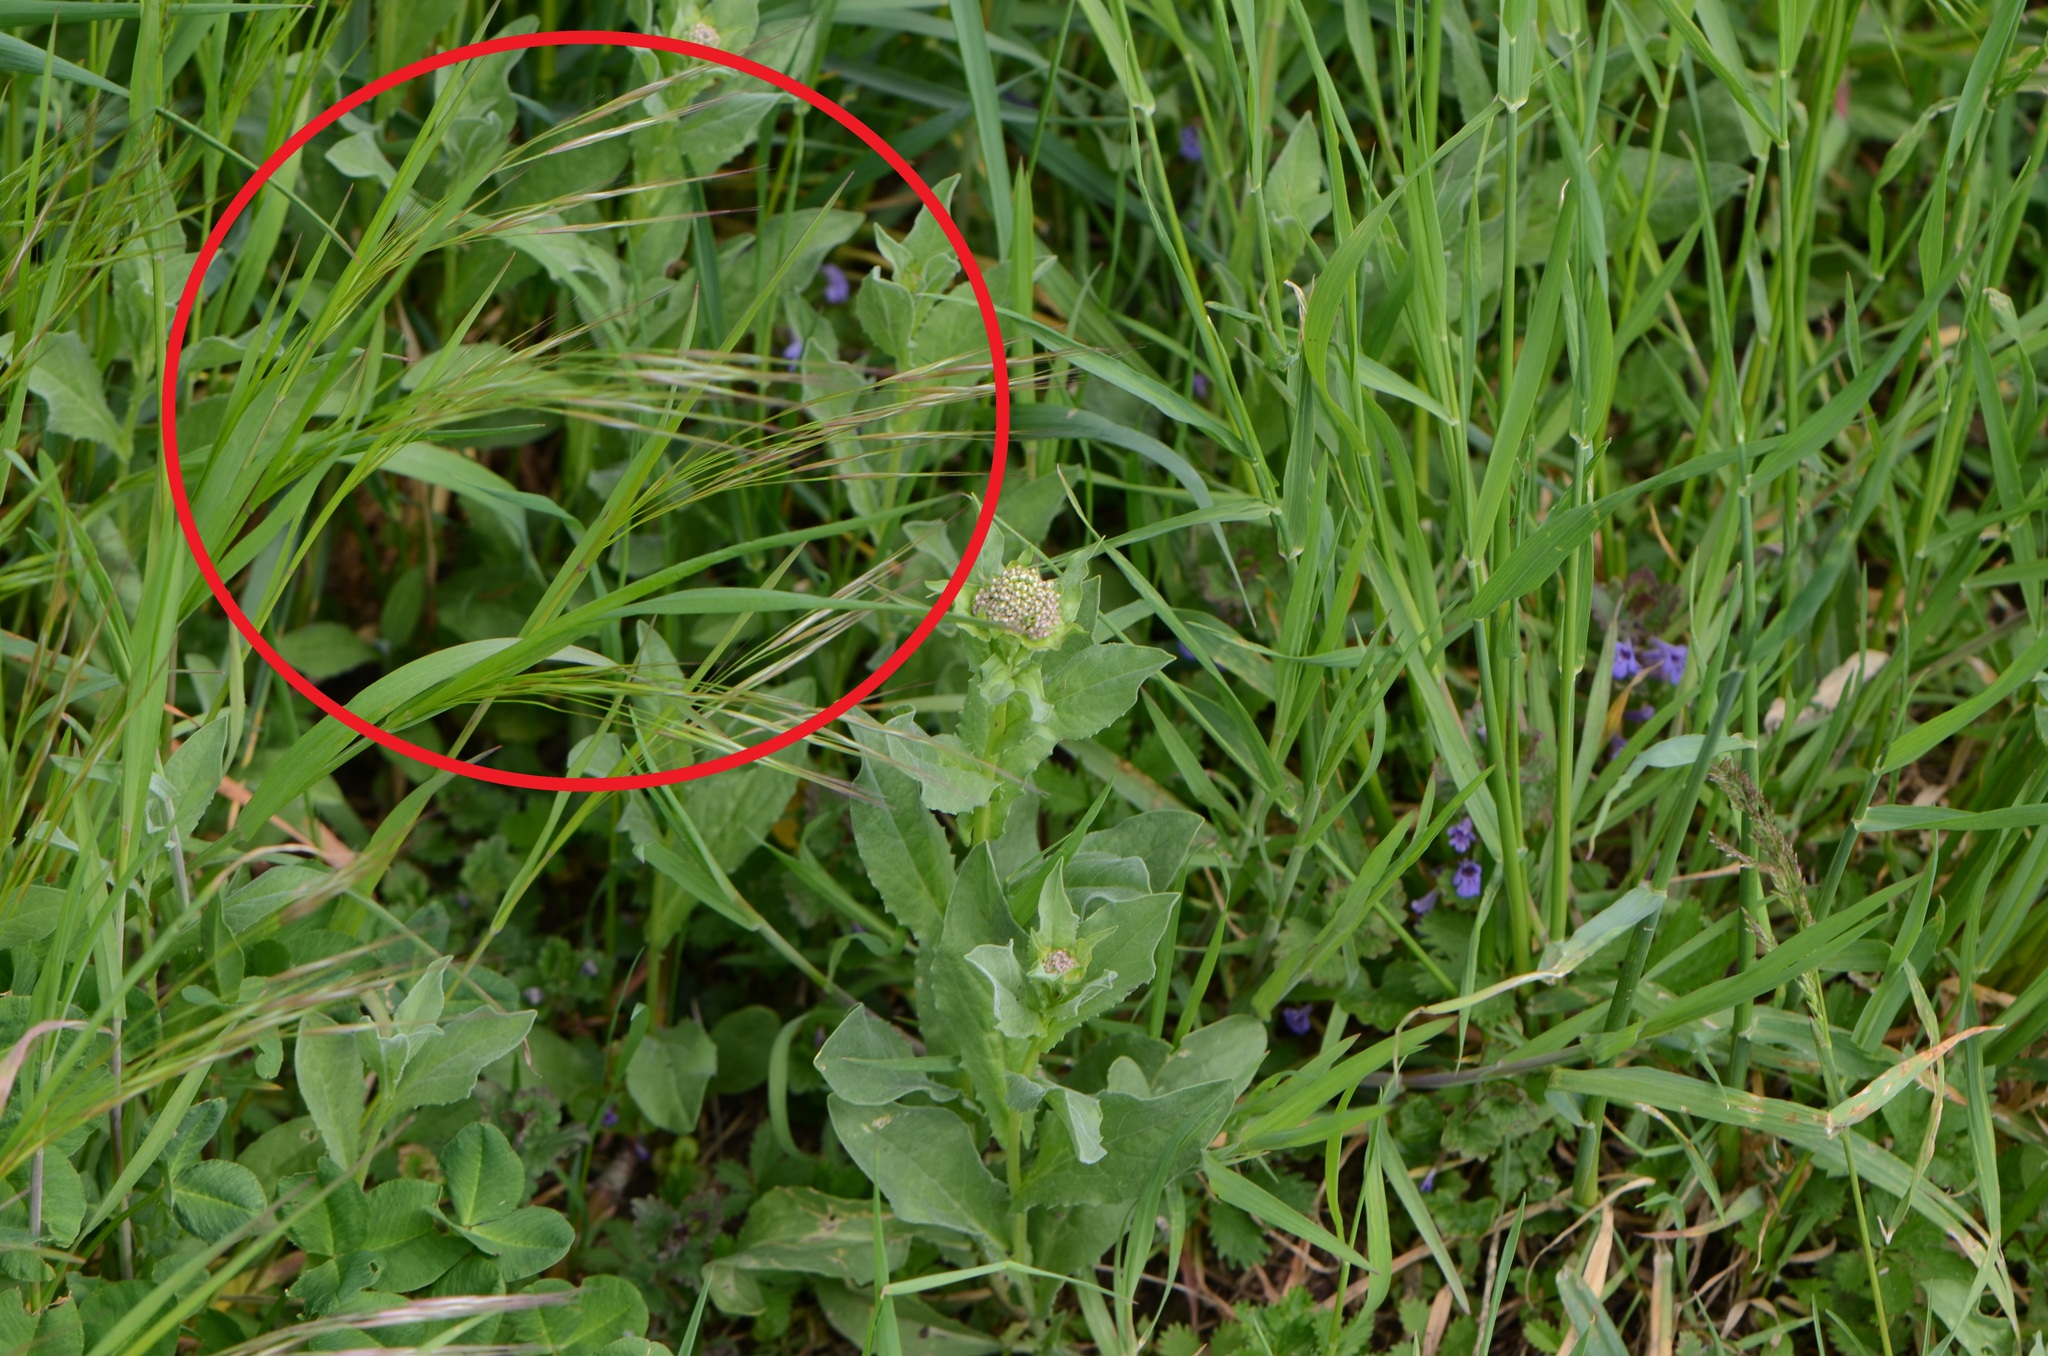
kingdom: Plantae
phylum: Tracheophyta
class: Liliopsida
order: Poales
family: Poaceae
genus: Bromus
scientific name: Bromus sterilis
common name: Poverty brome
